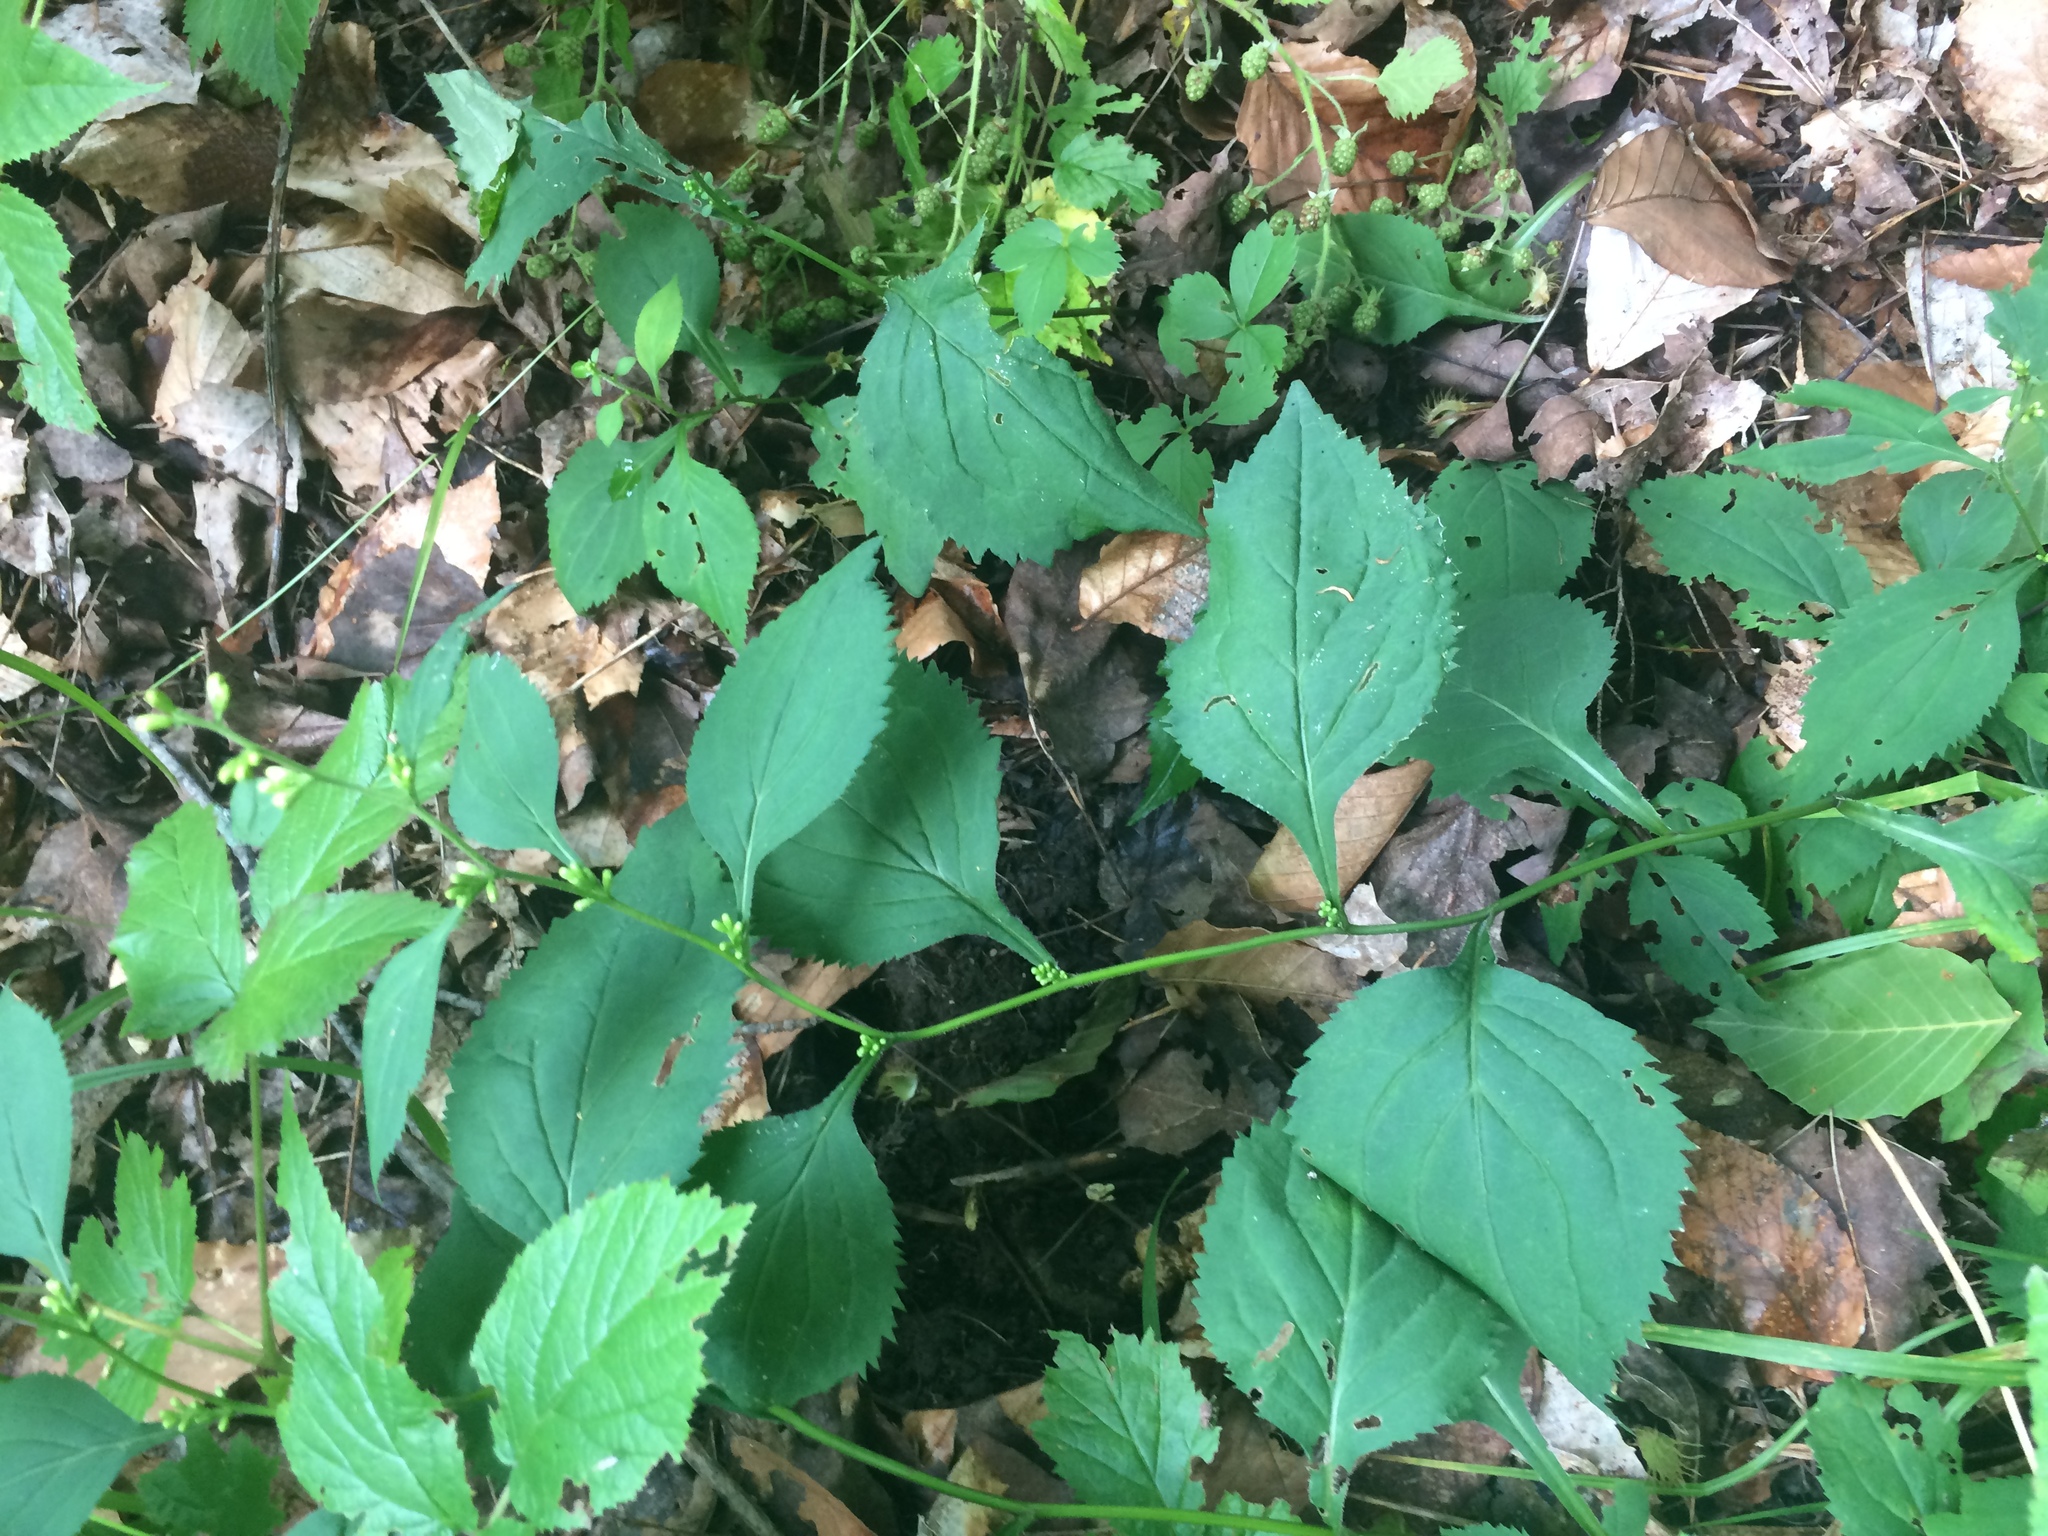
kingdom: Plantae
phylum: Tracheophyta
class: Magnoliopsida
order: Asterales
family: Asteraceae
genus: Solidago
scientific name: Solidago flexicaulis
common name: Zig-zag goldenrod
